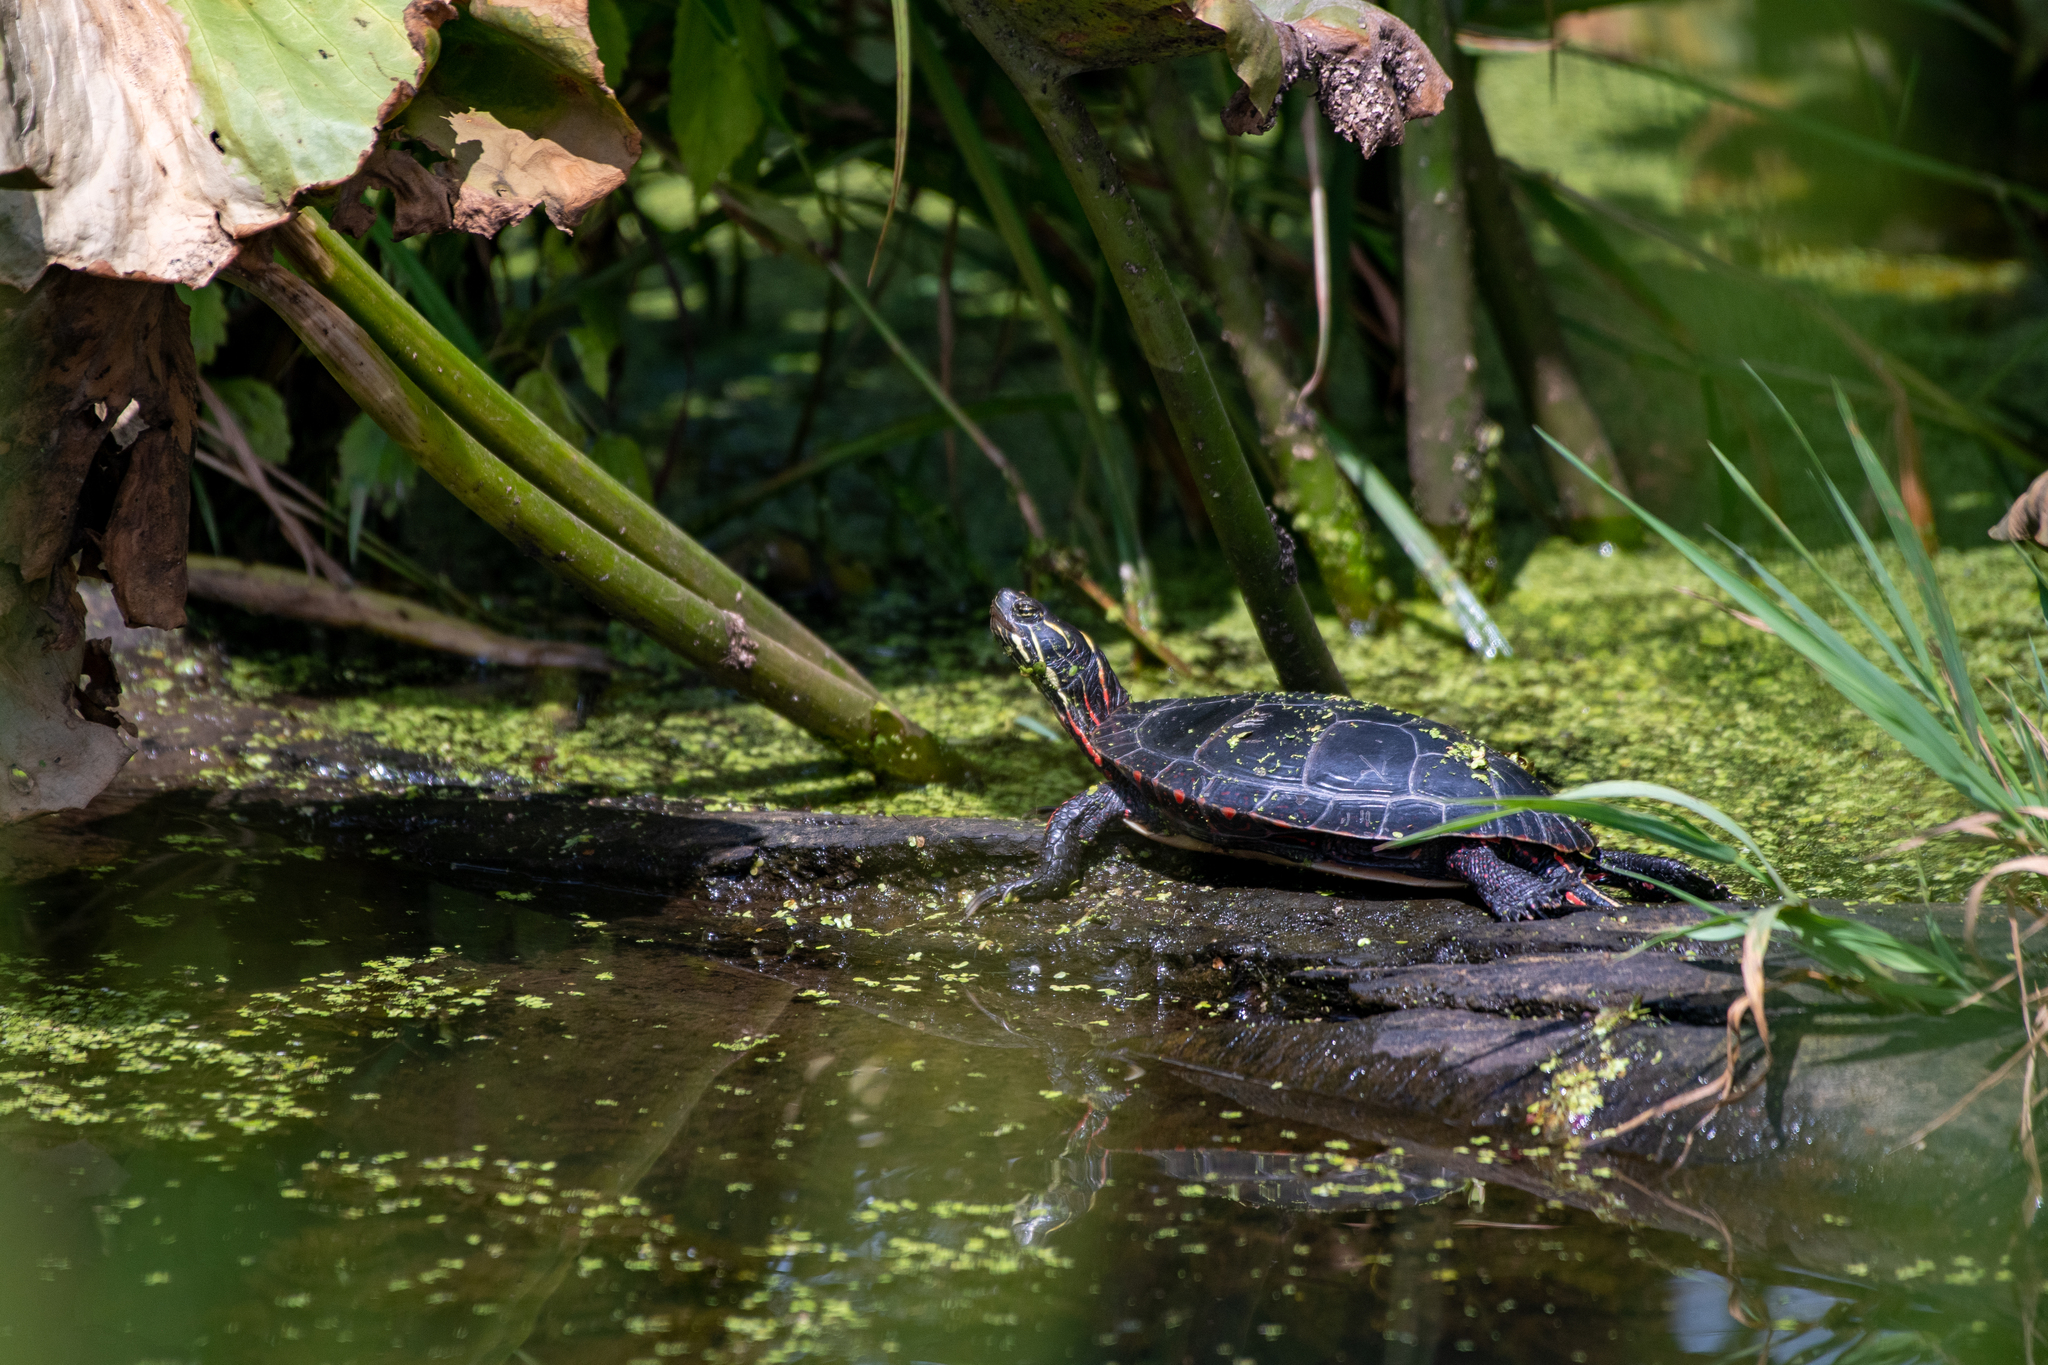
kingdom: Animalia
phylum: Chordata
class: Testudines
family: Emydidae
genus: Chrysemys
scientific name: Chrysemys picta
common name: Painted turtle
